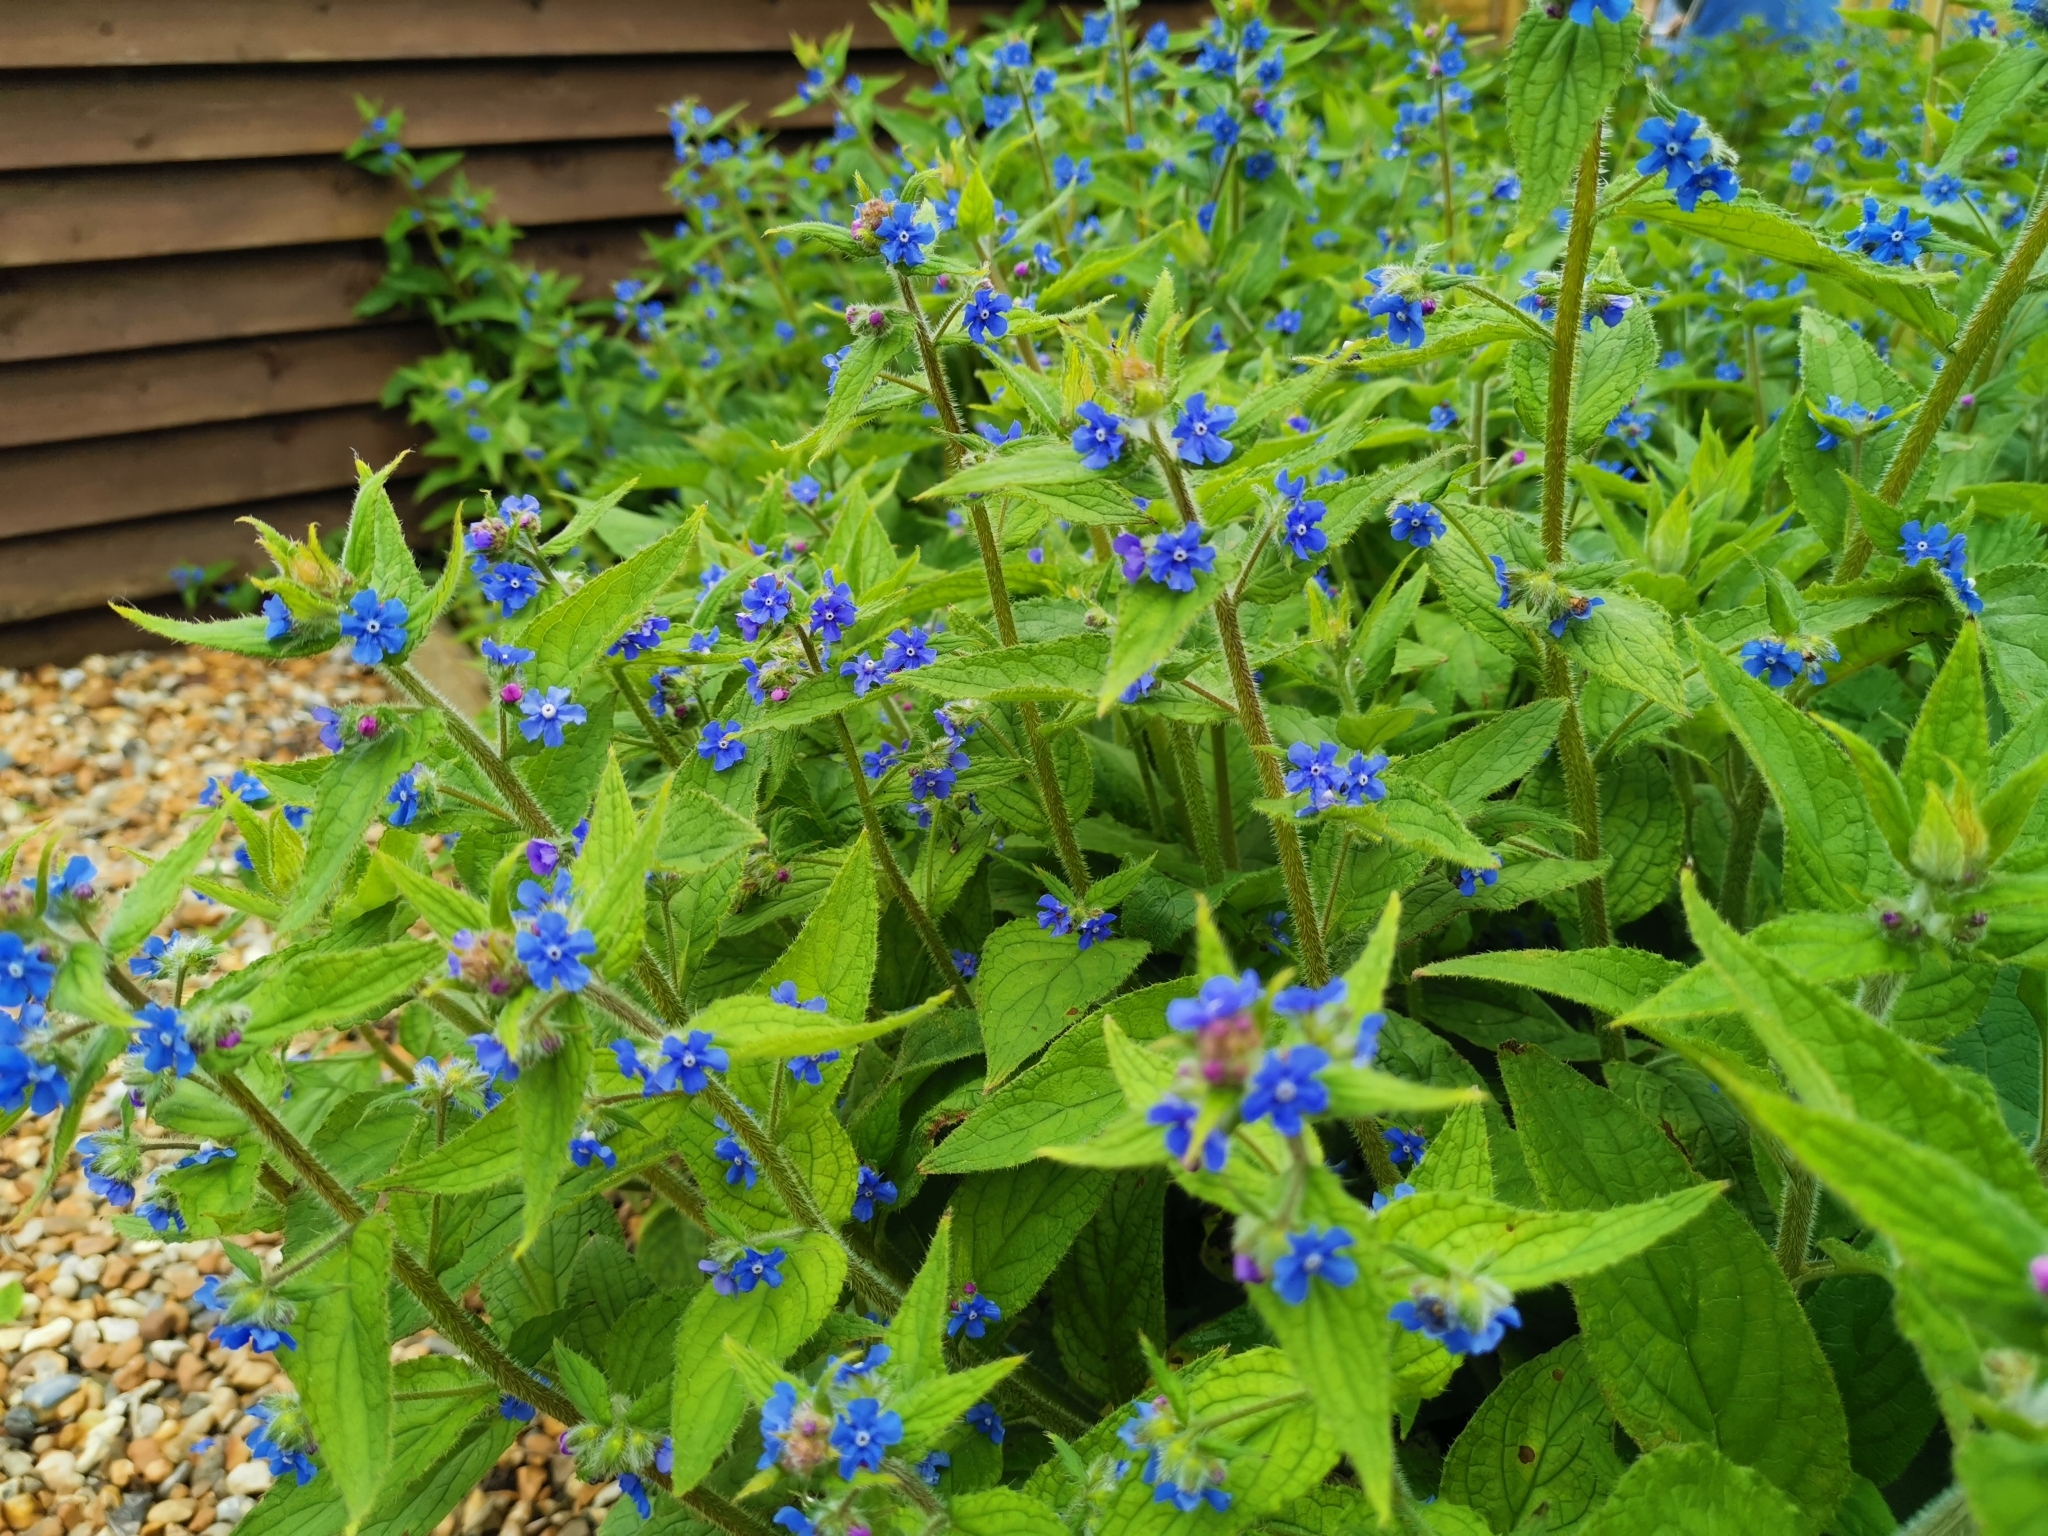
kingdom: Plantae
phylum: Tracheophyta
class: Magnoliopsida
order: Boraginales
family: Boraginaceae
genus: Pentaglottis
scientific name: Pentaglottis sempervirens
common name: Green alkanet
